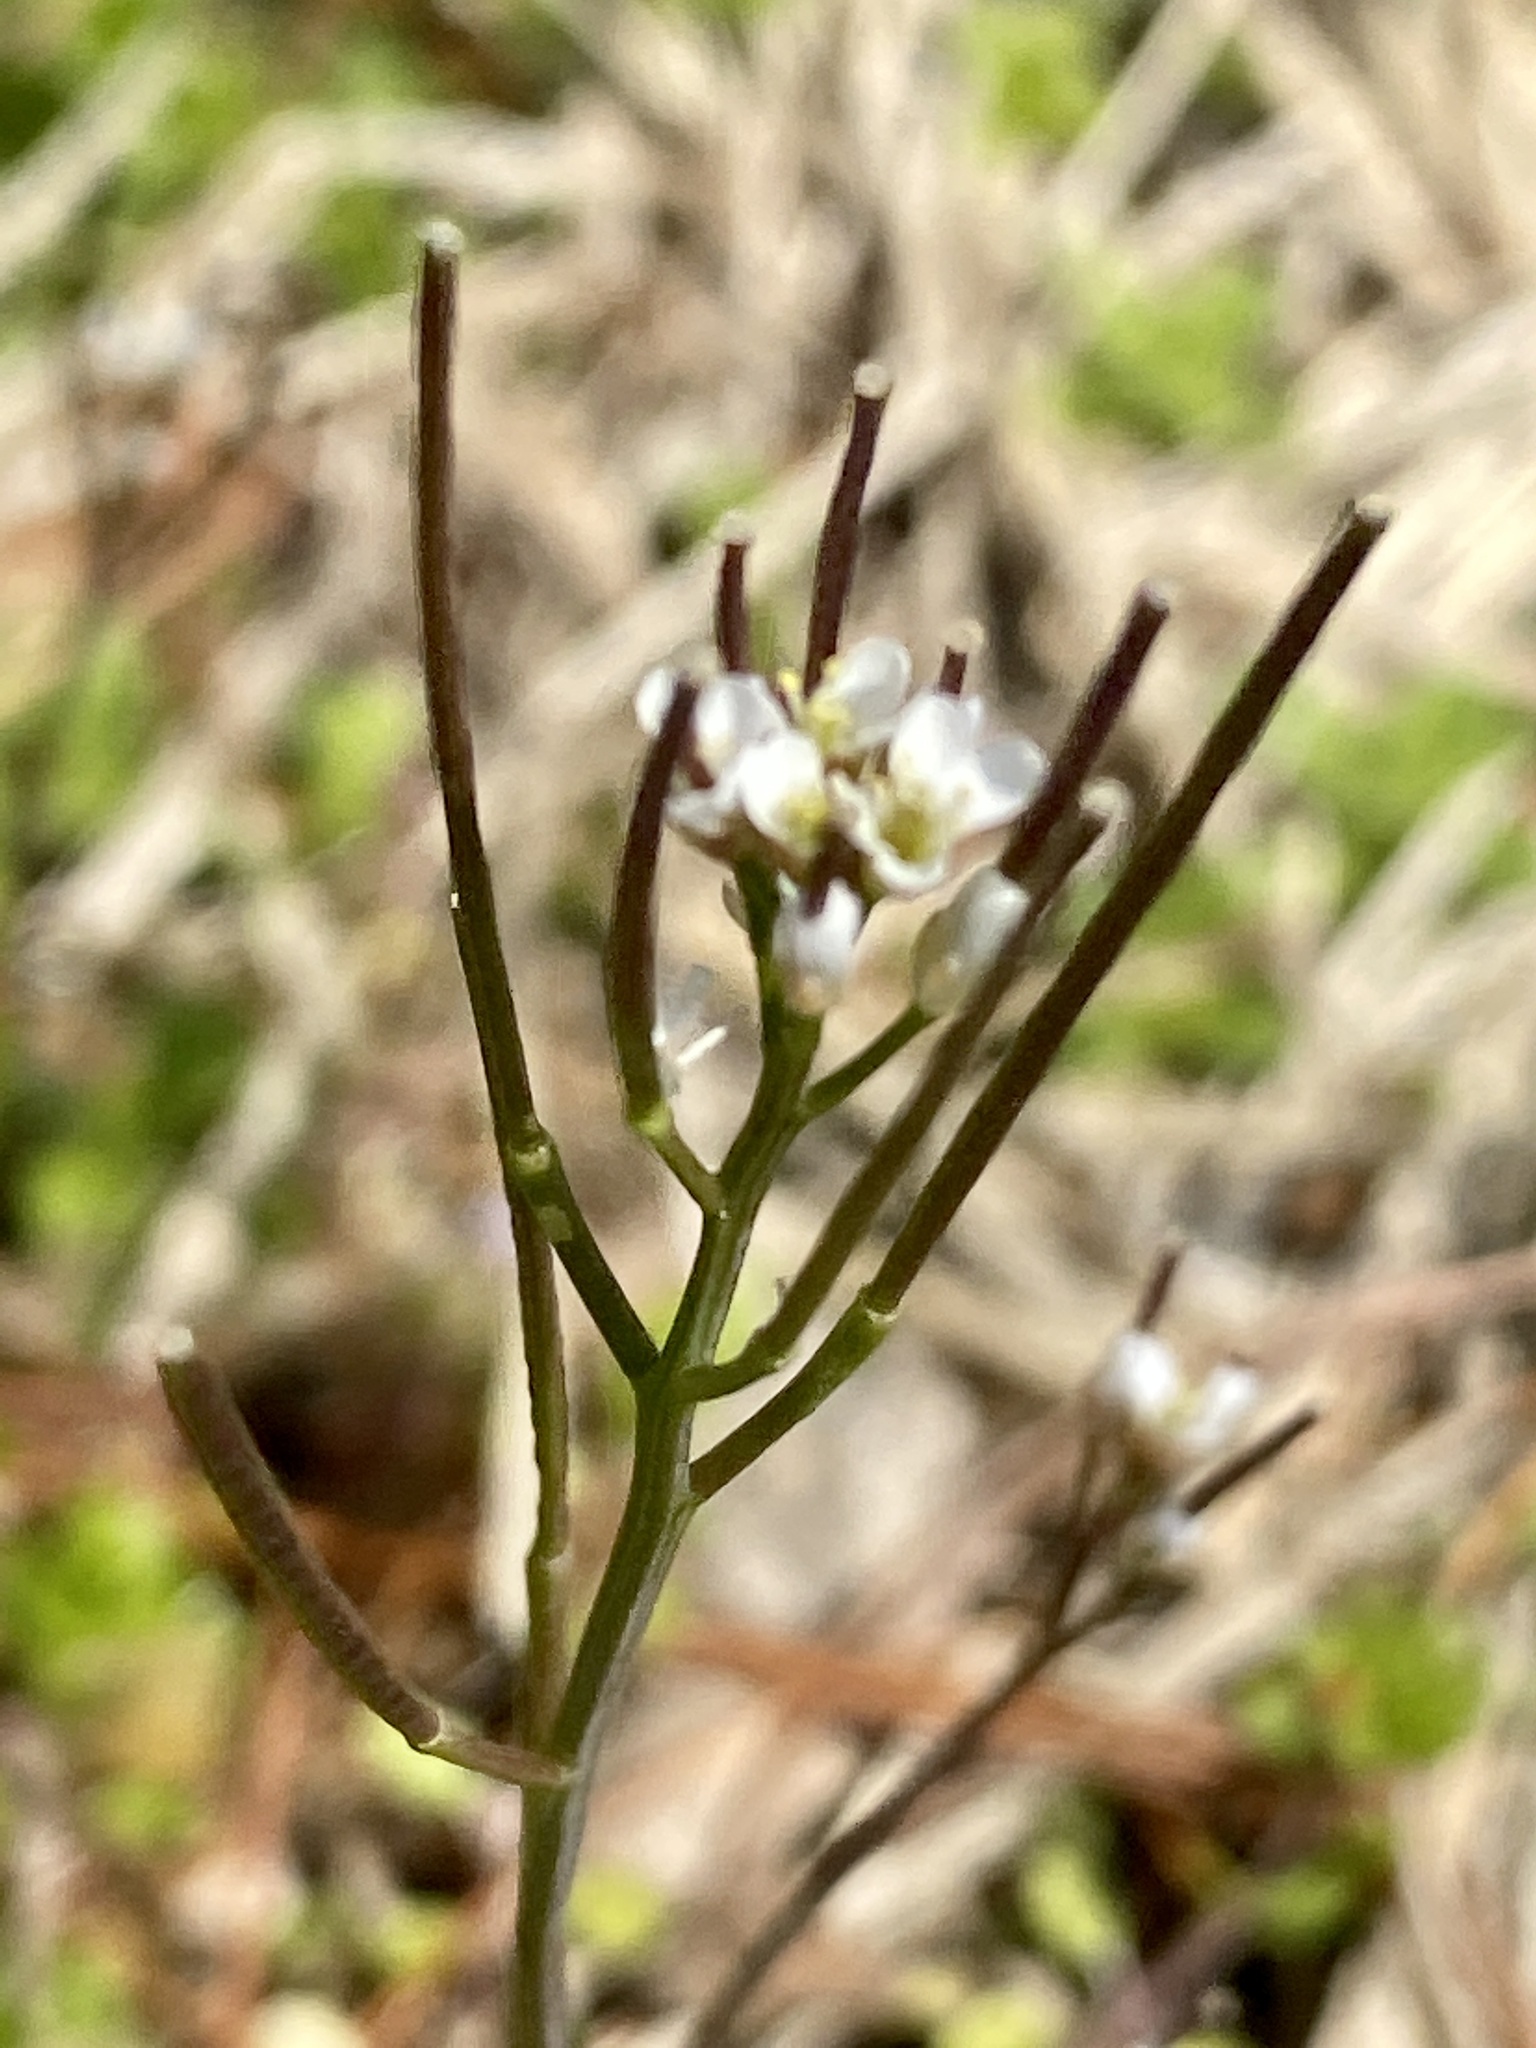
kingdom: Plantae
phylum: Tracheophyta
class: Magnoliopsida
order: Brassicales
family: Brassicaceae
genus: Cardamine
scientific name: Cardamine hirsuta
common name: Hairy bittercress
